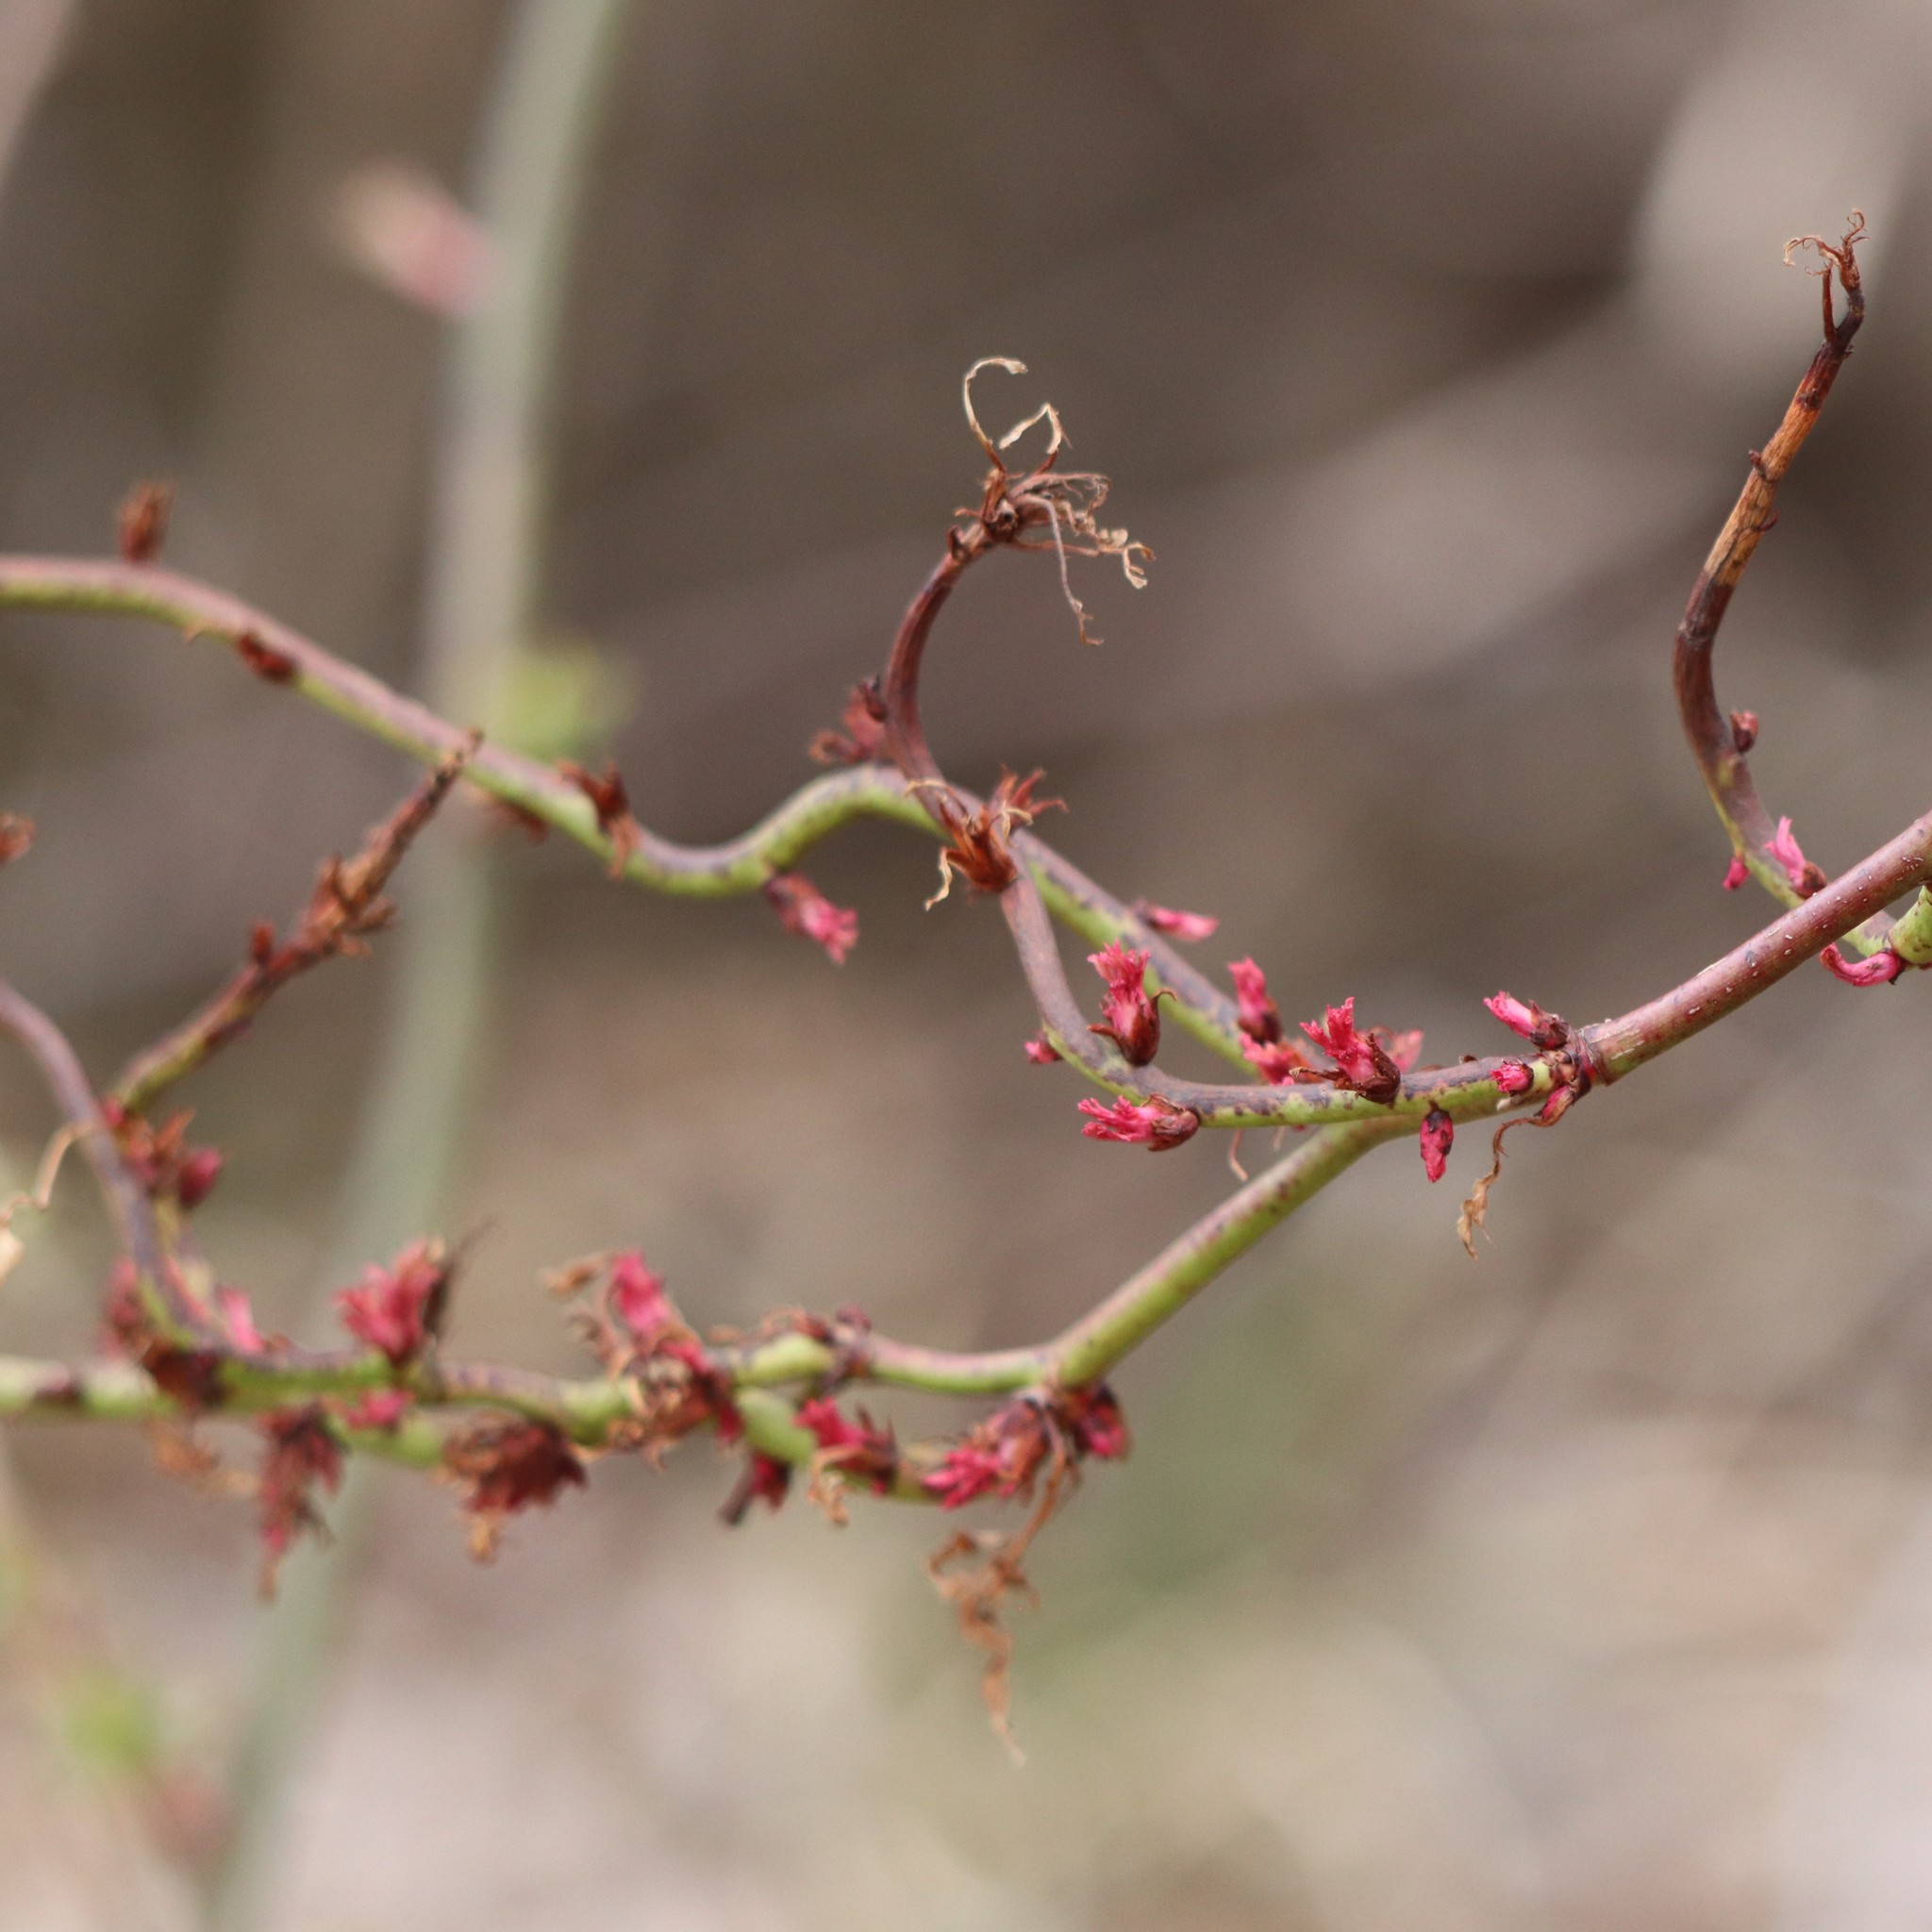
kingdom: Viruses
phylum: Negarnaviricota
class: Ellioviricetes
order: Bunyavirales
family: Fimoviridae
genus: Emaravirus
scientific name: Emaravirus rosae
